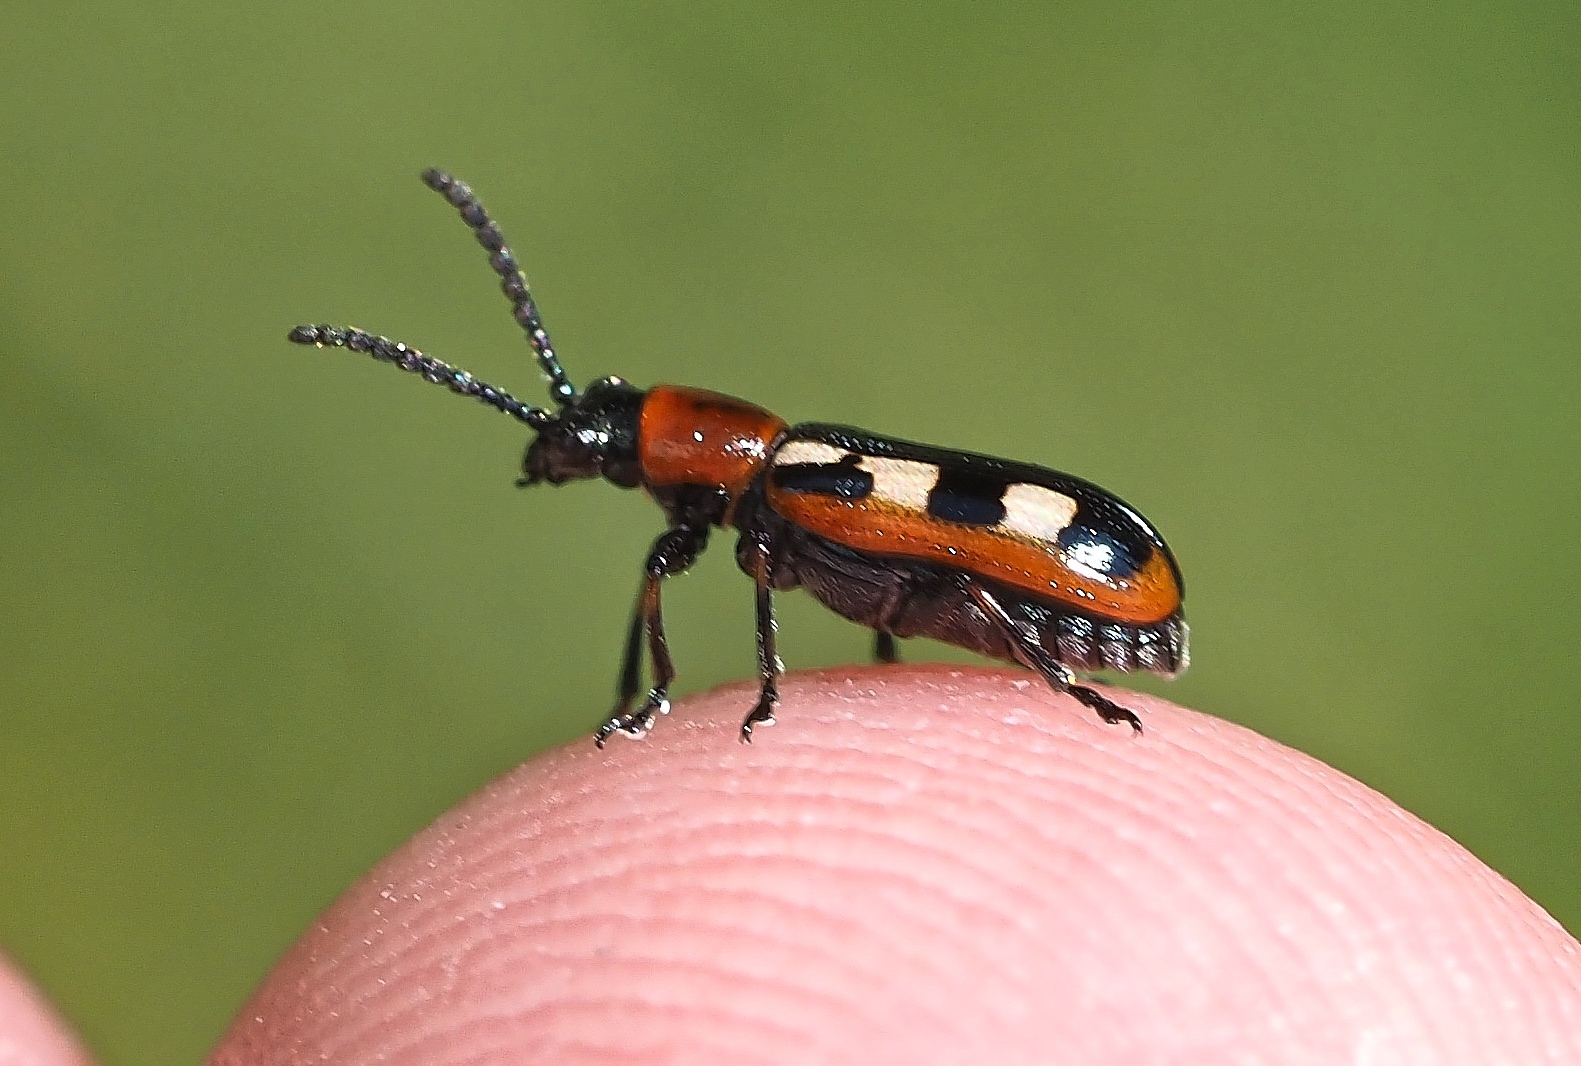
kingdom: Animalia
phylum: Arthropoda
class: Insecta
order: Coleoptera
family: Chrysomelidae
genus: Crioceris
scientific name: Crioceris asparagi
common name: Asparagus beetle
